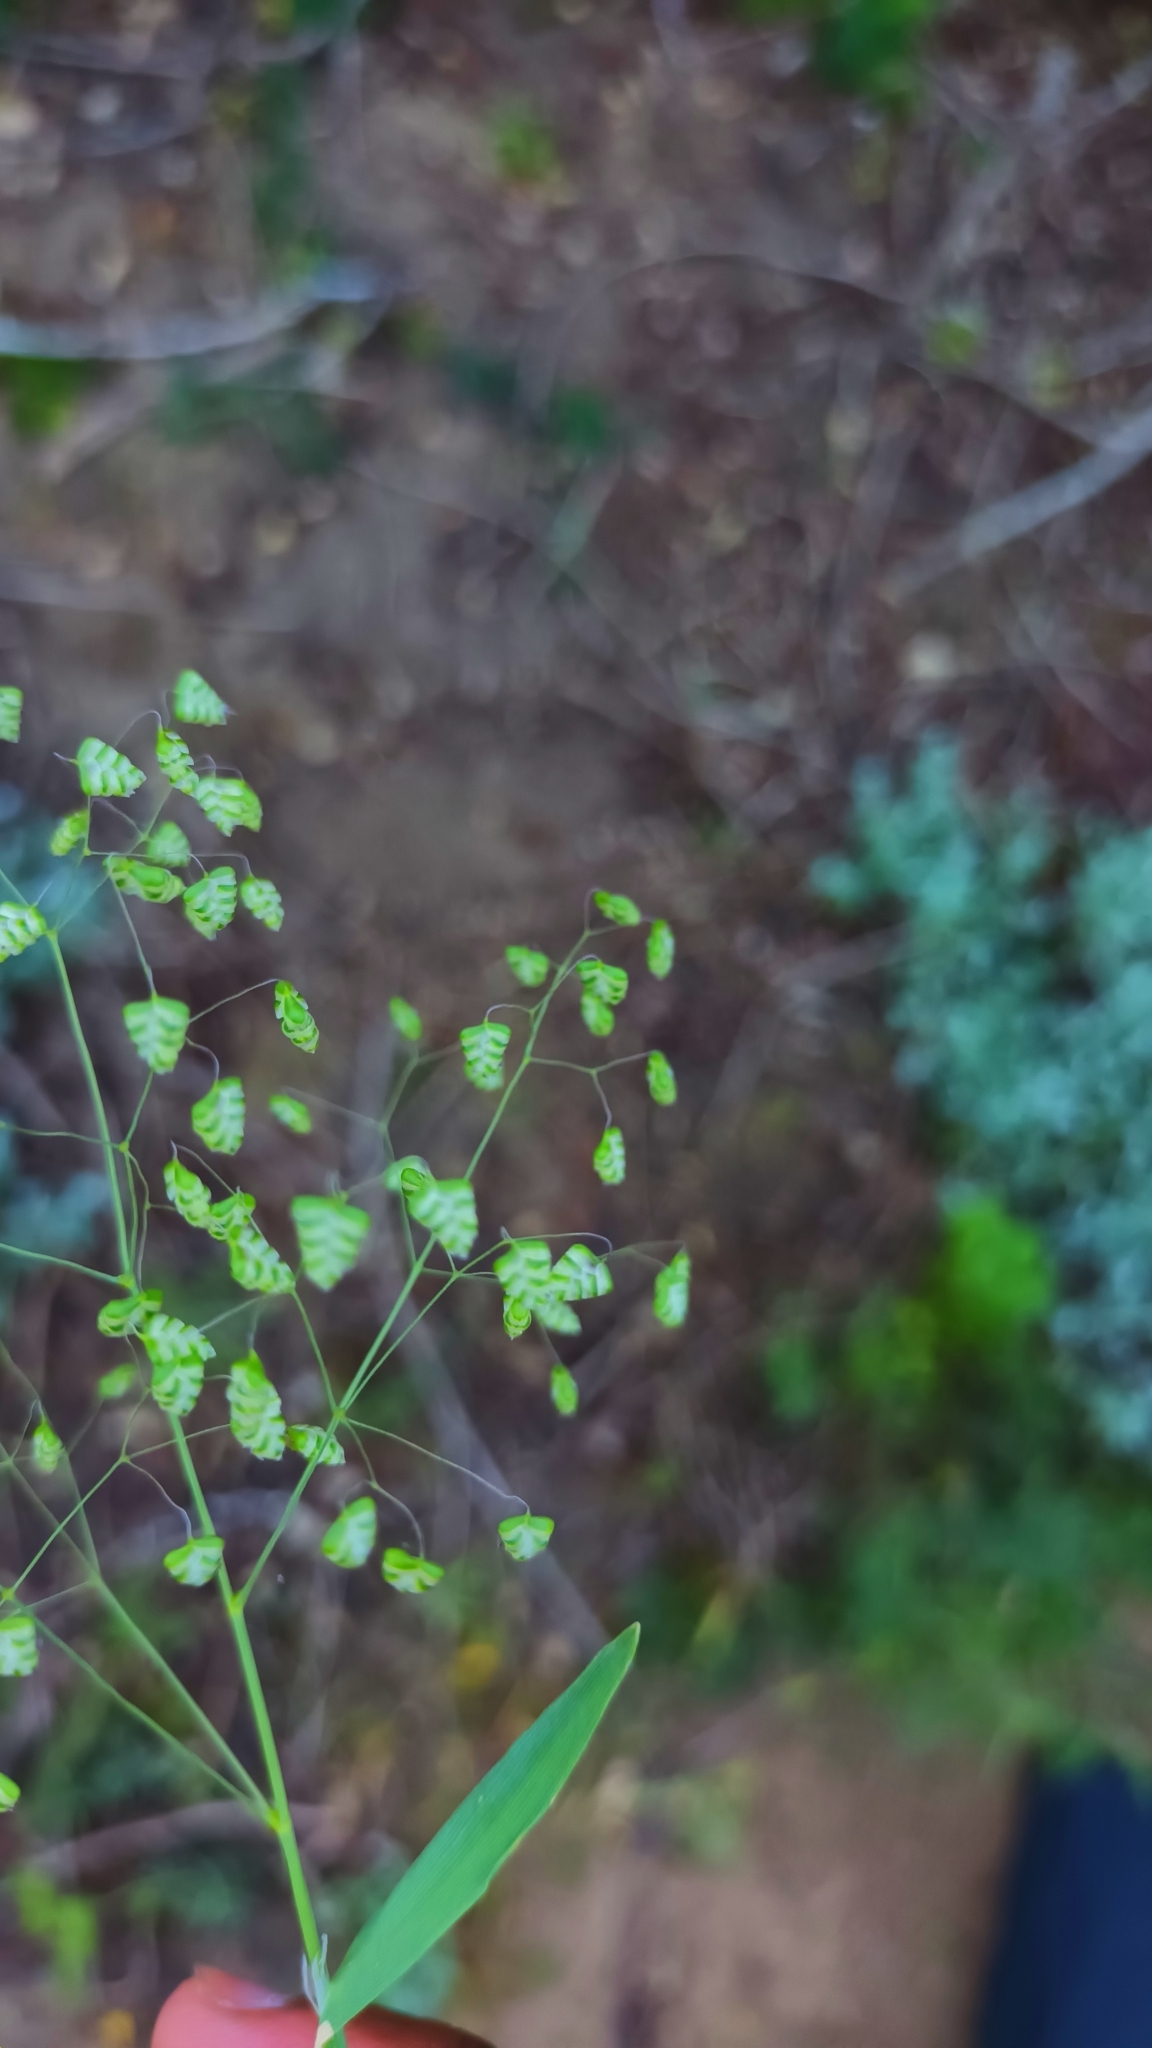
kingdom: Plantae
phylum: Tracheophyta
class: Liliopsida
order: Poales
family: Poaceae
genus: Briza
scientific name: Briza minor
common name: Lesser quaking-grass
